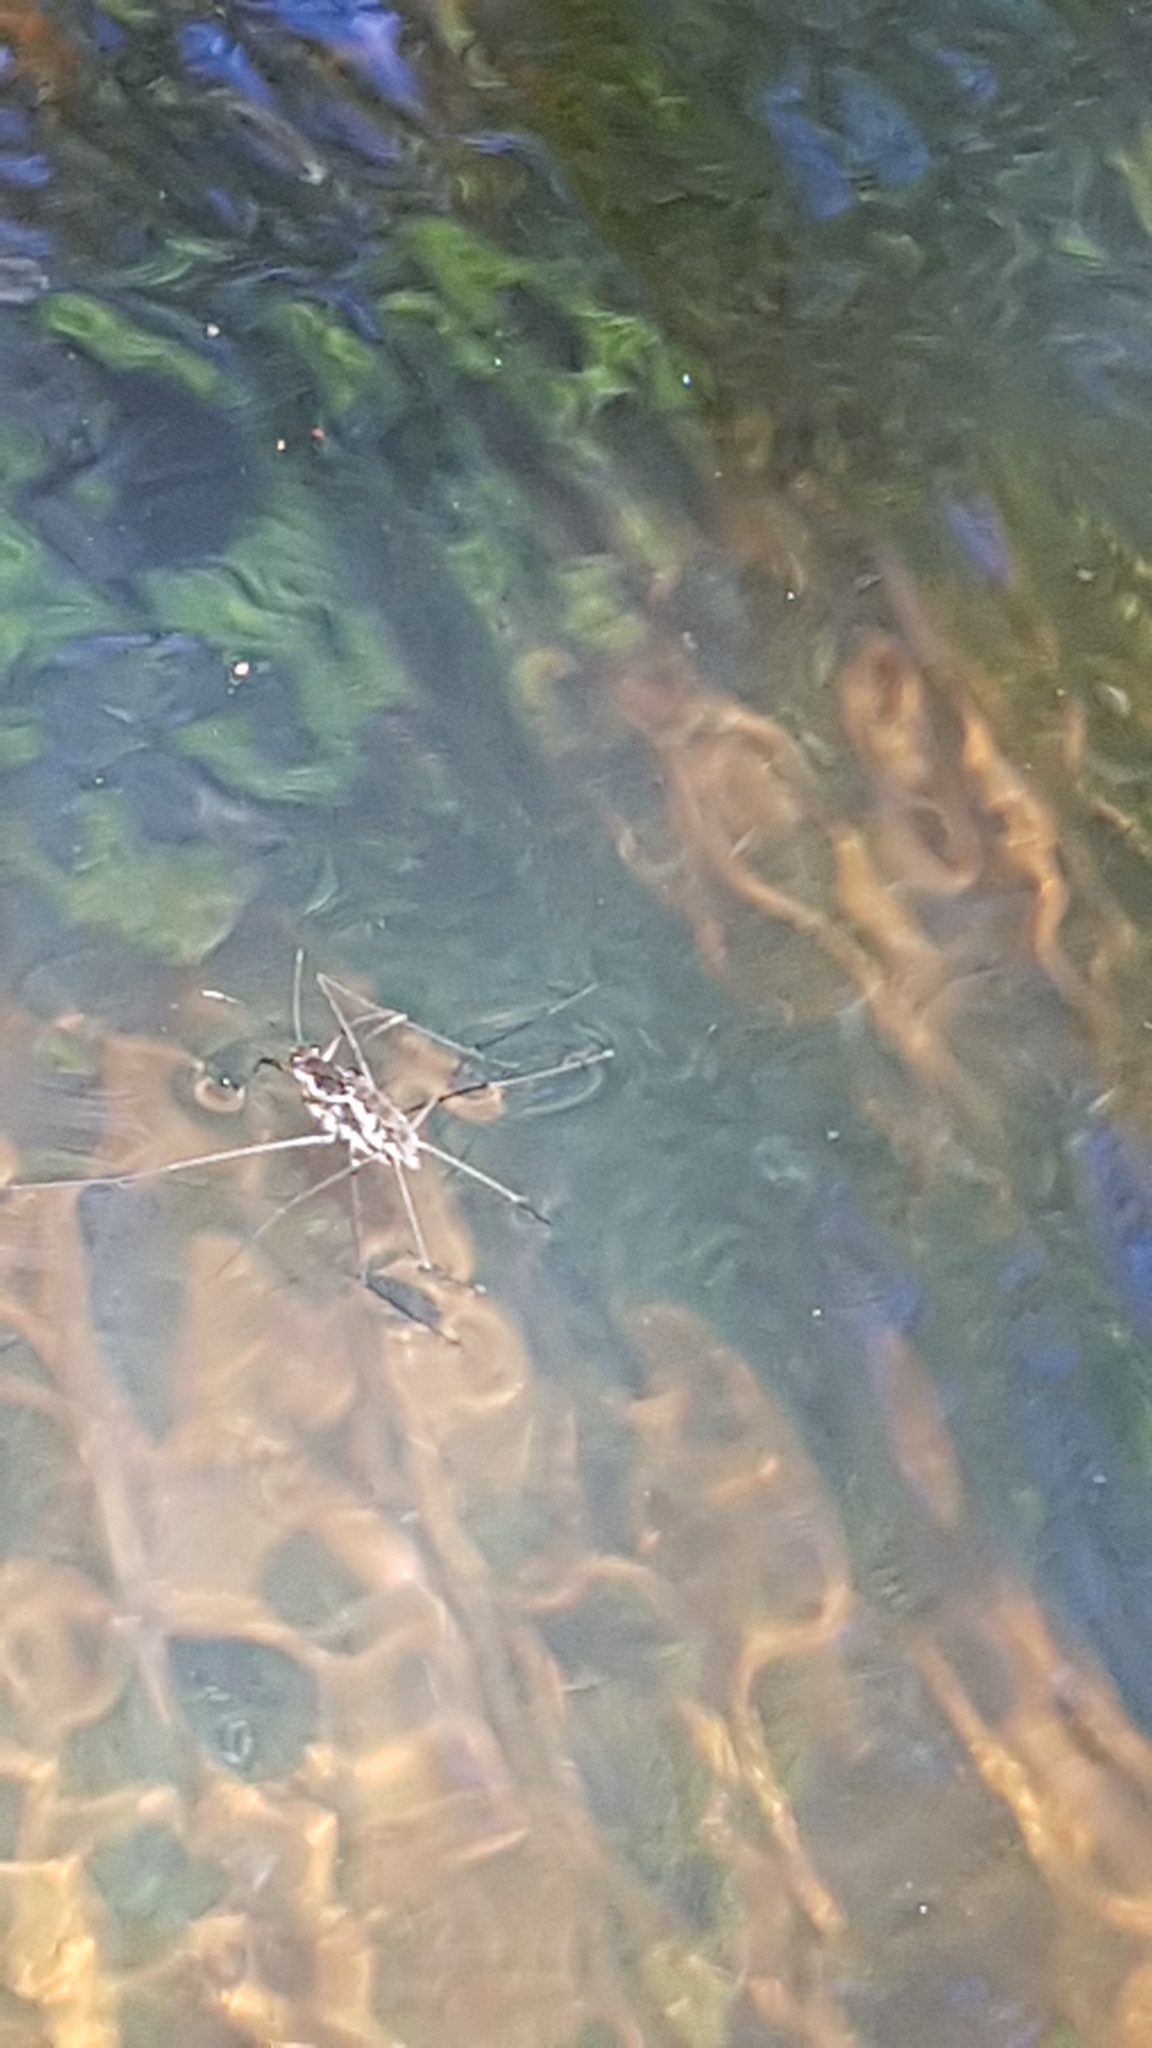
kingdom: Animalia
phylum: Arthropoda
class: Insecta
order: Hemiptera
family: Gerridae
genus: Tenagogerris
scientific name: Tenagogerris euphrosyne
